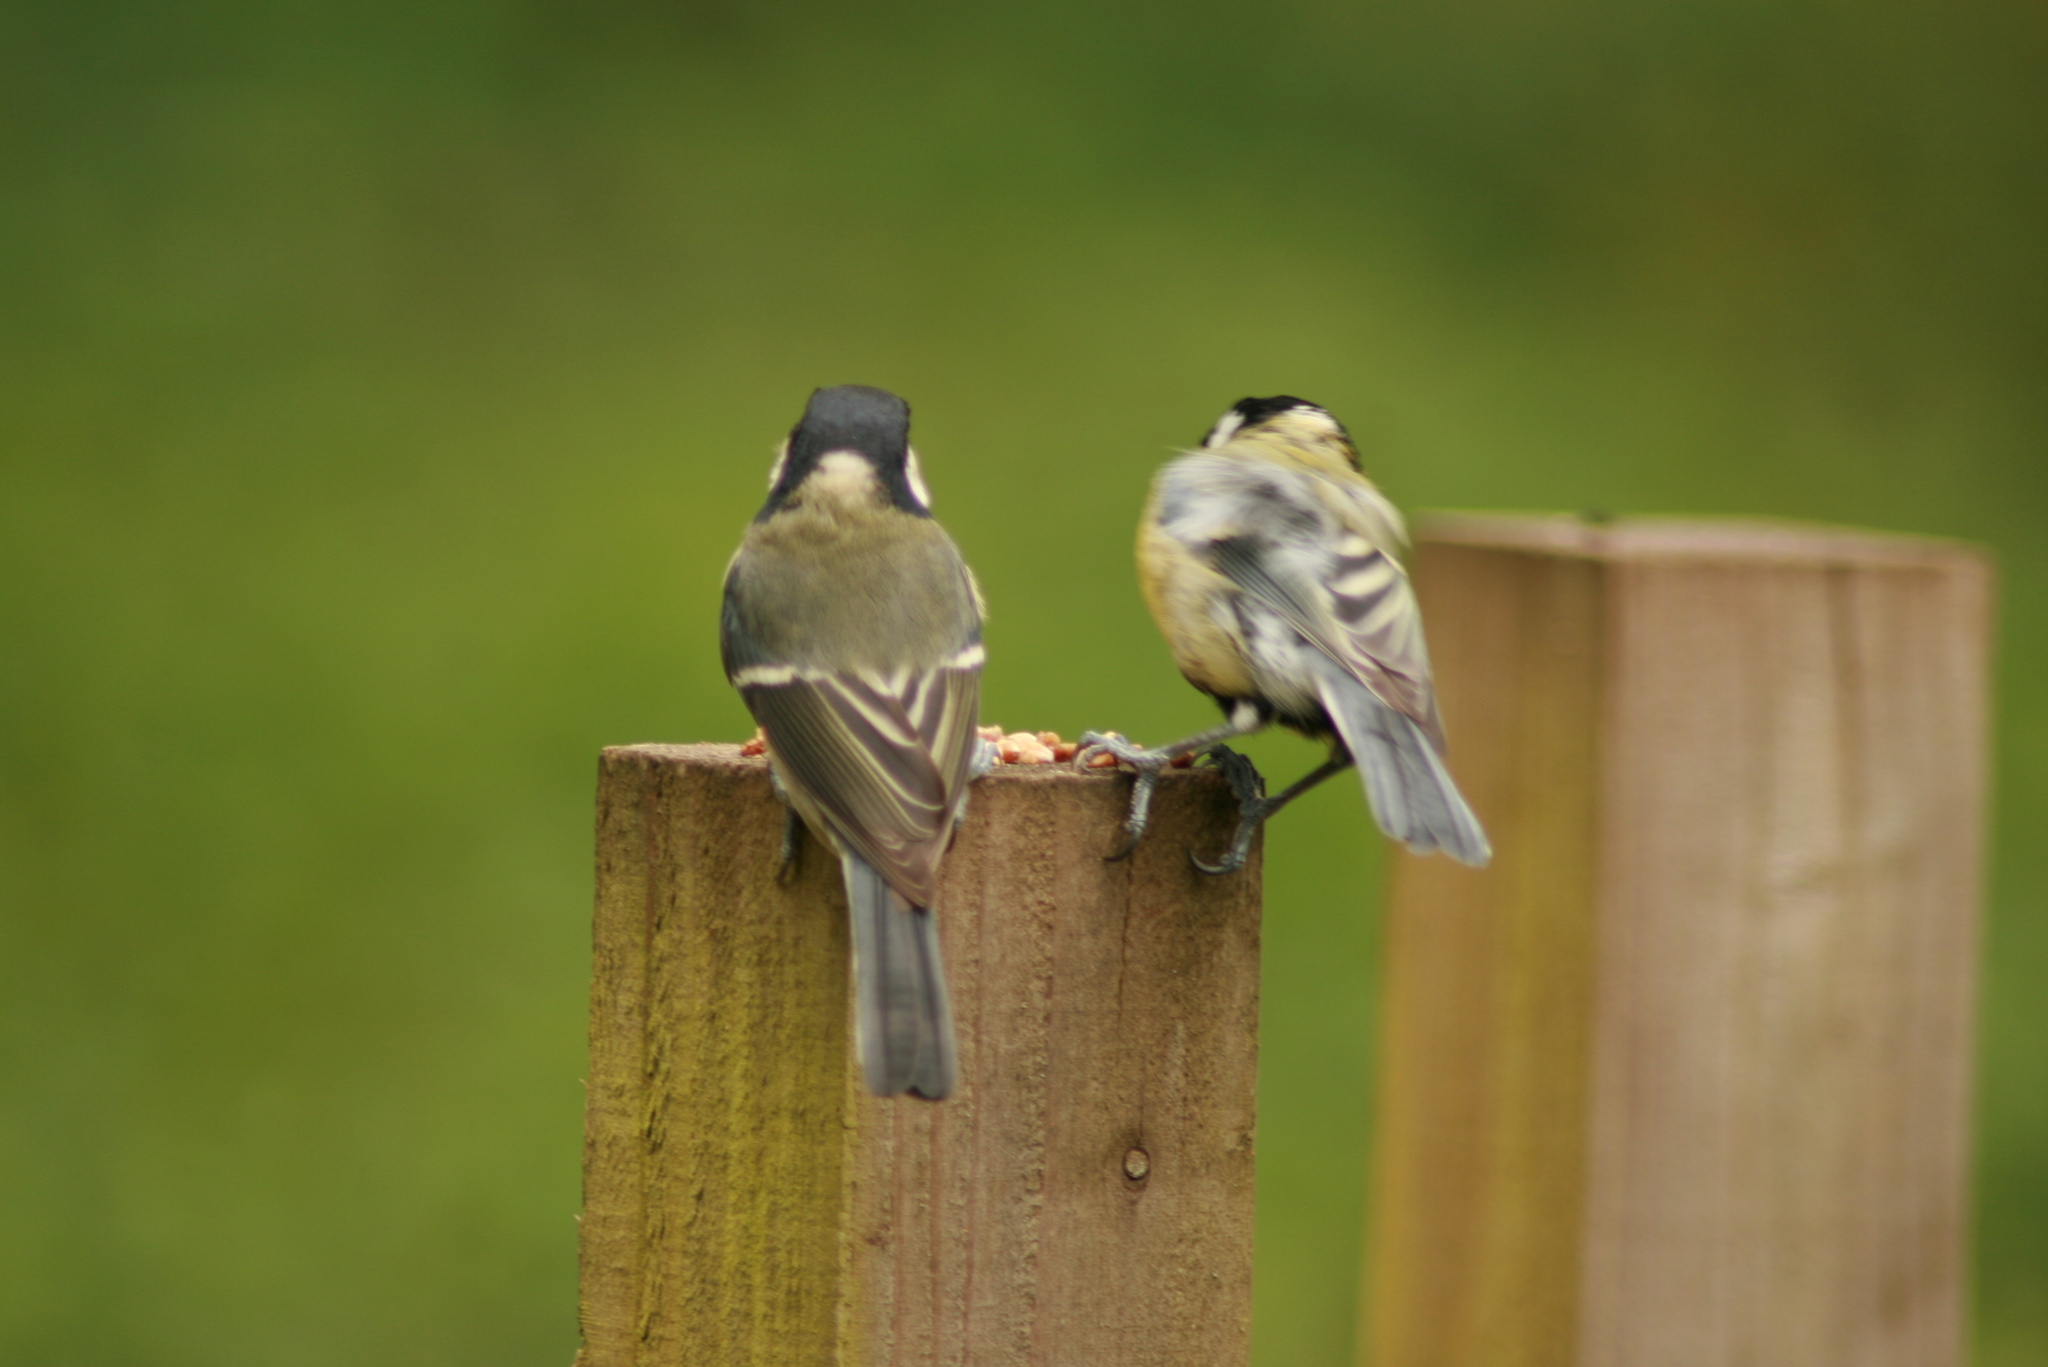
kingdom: Animalia
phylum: Chordata
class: Aves
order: Passeriformes
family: Paridae
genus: Parus
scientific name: Parus major
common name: Great tit
